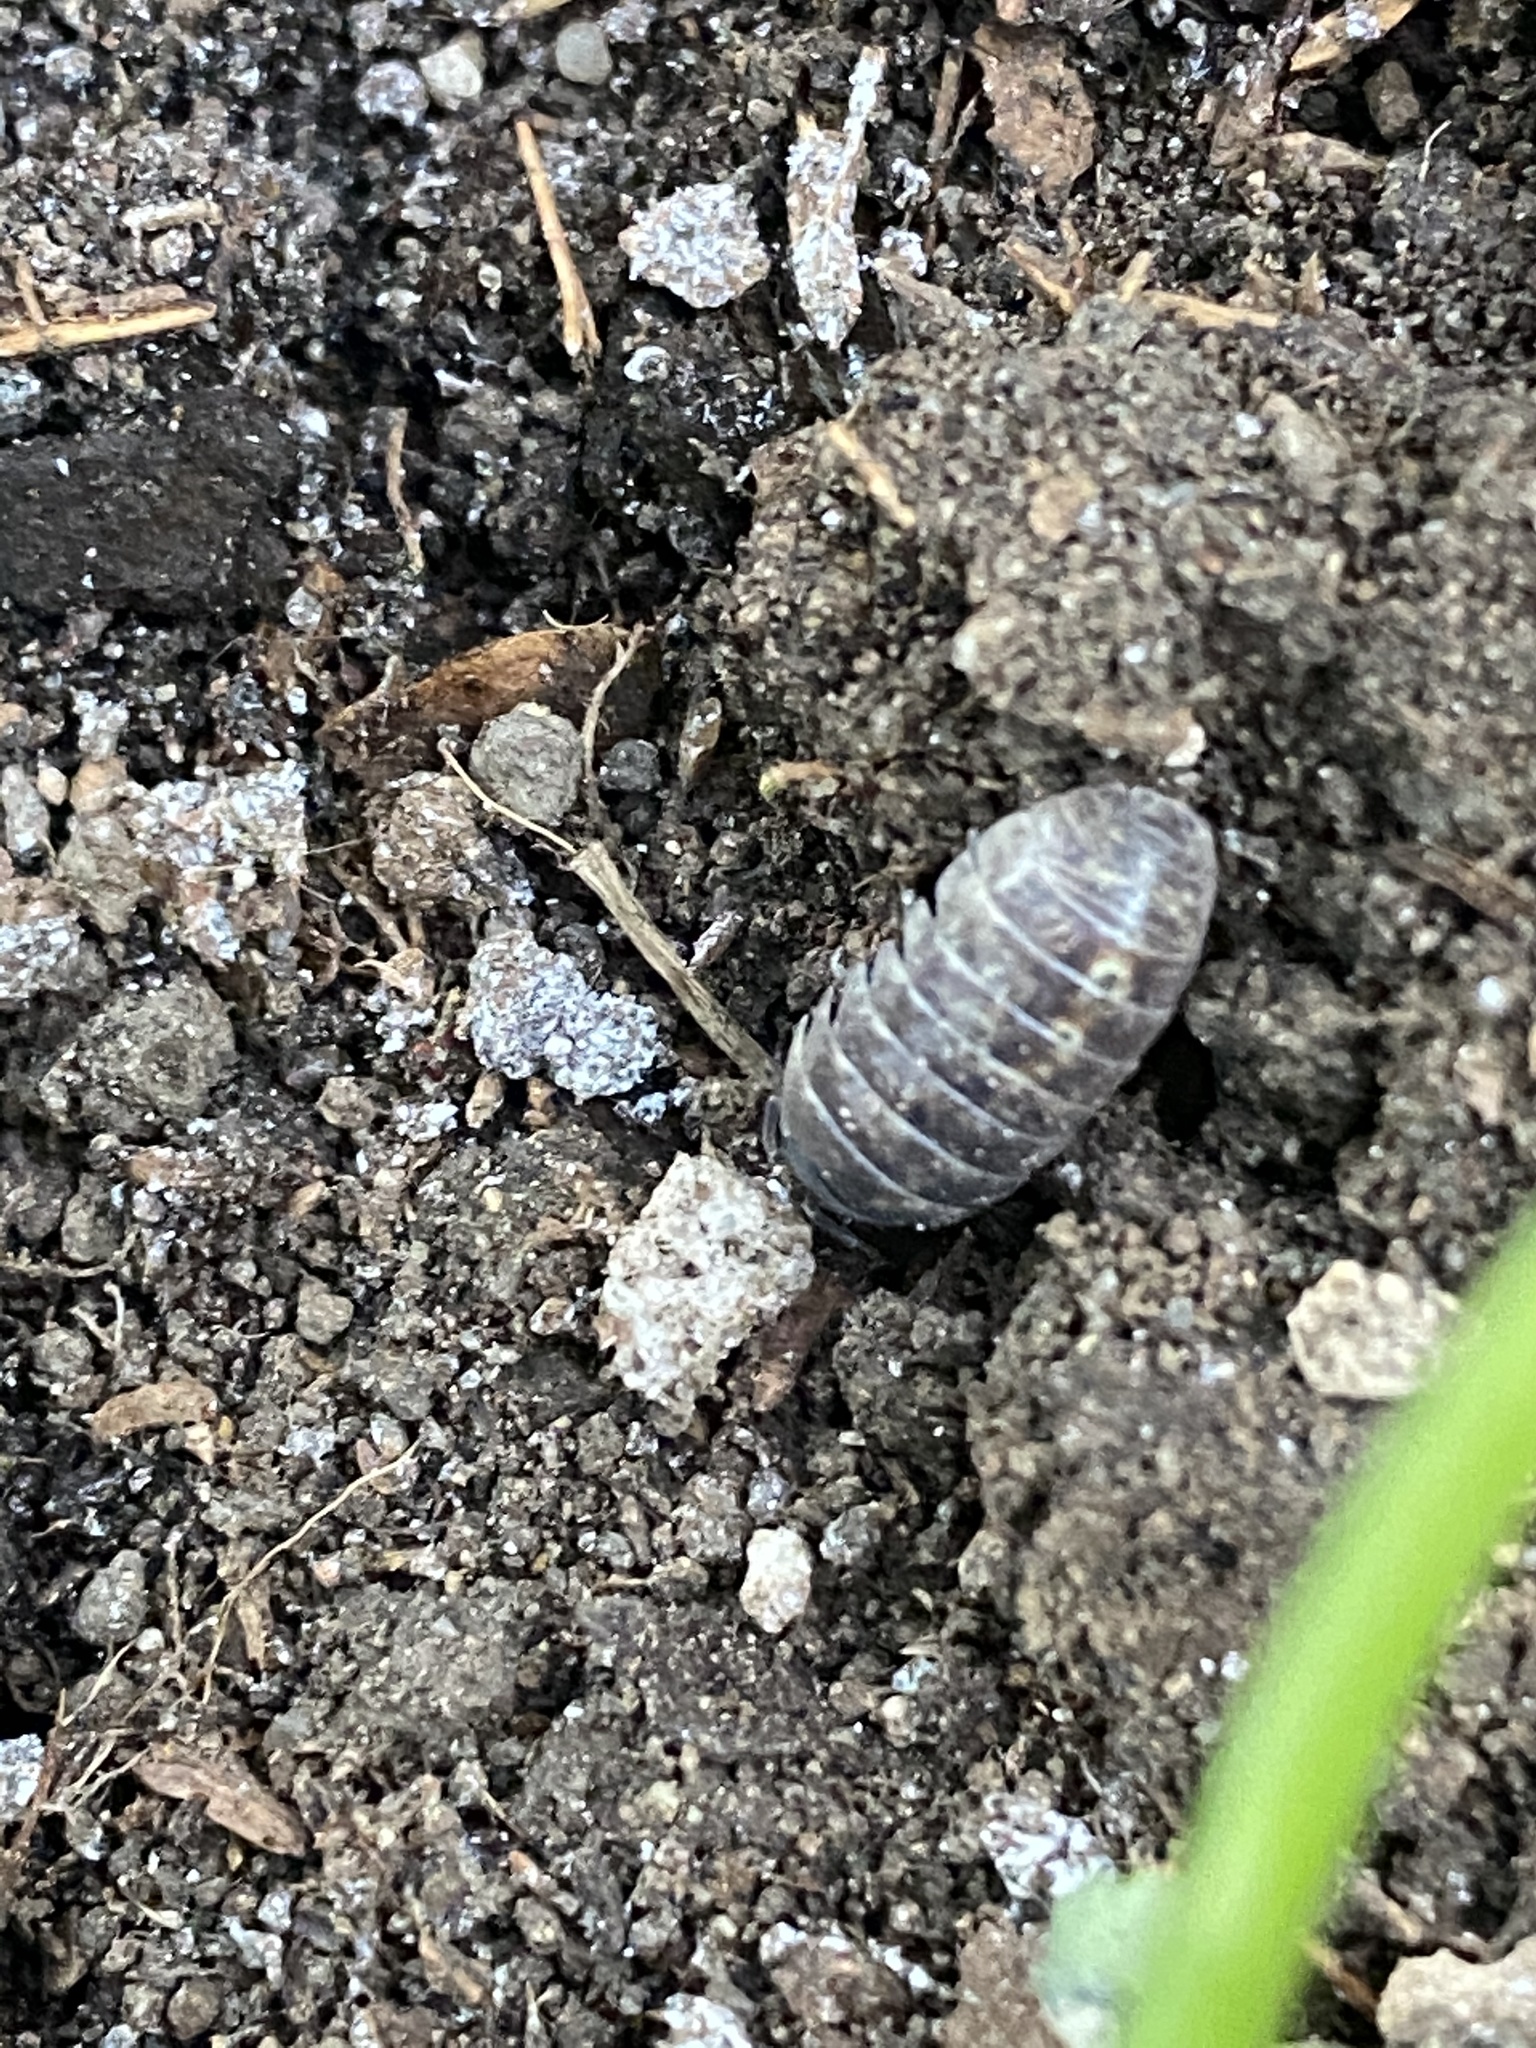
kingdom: Animalia
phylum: Arthropoda
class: Malacostraca
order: Isopoda
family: Armadillidiidae
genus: Armadillidium
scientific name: Armadillidium vulgare
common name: Common pill woodlouse
